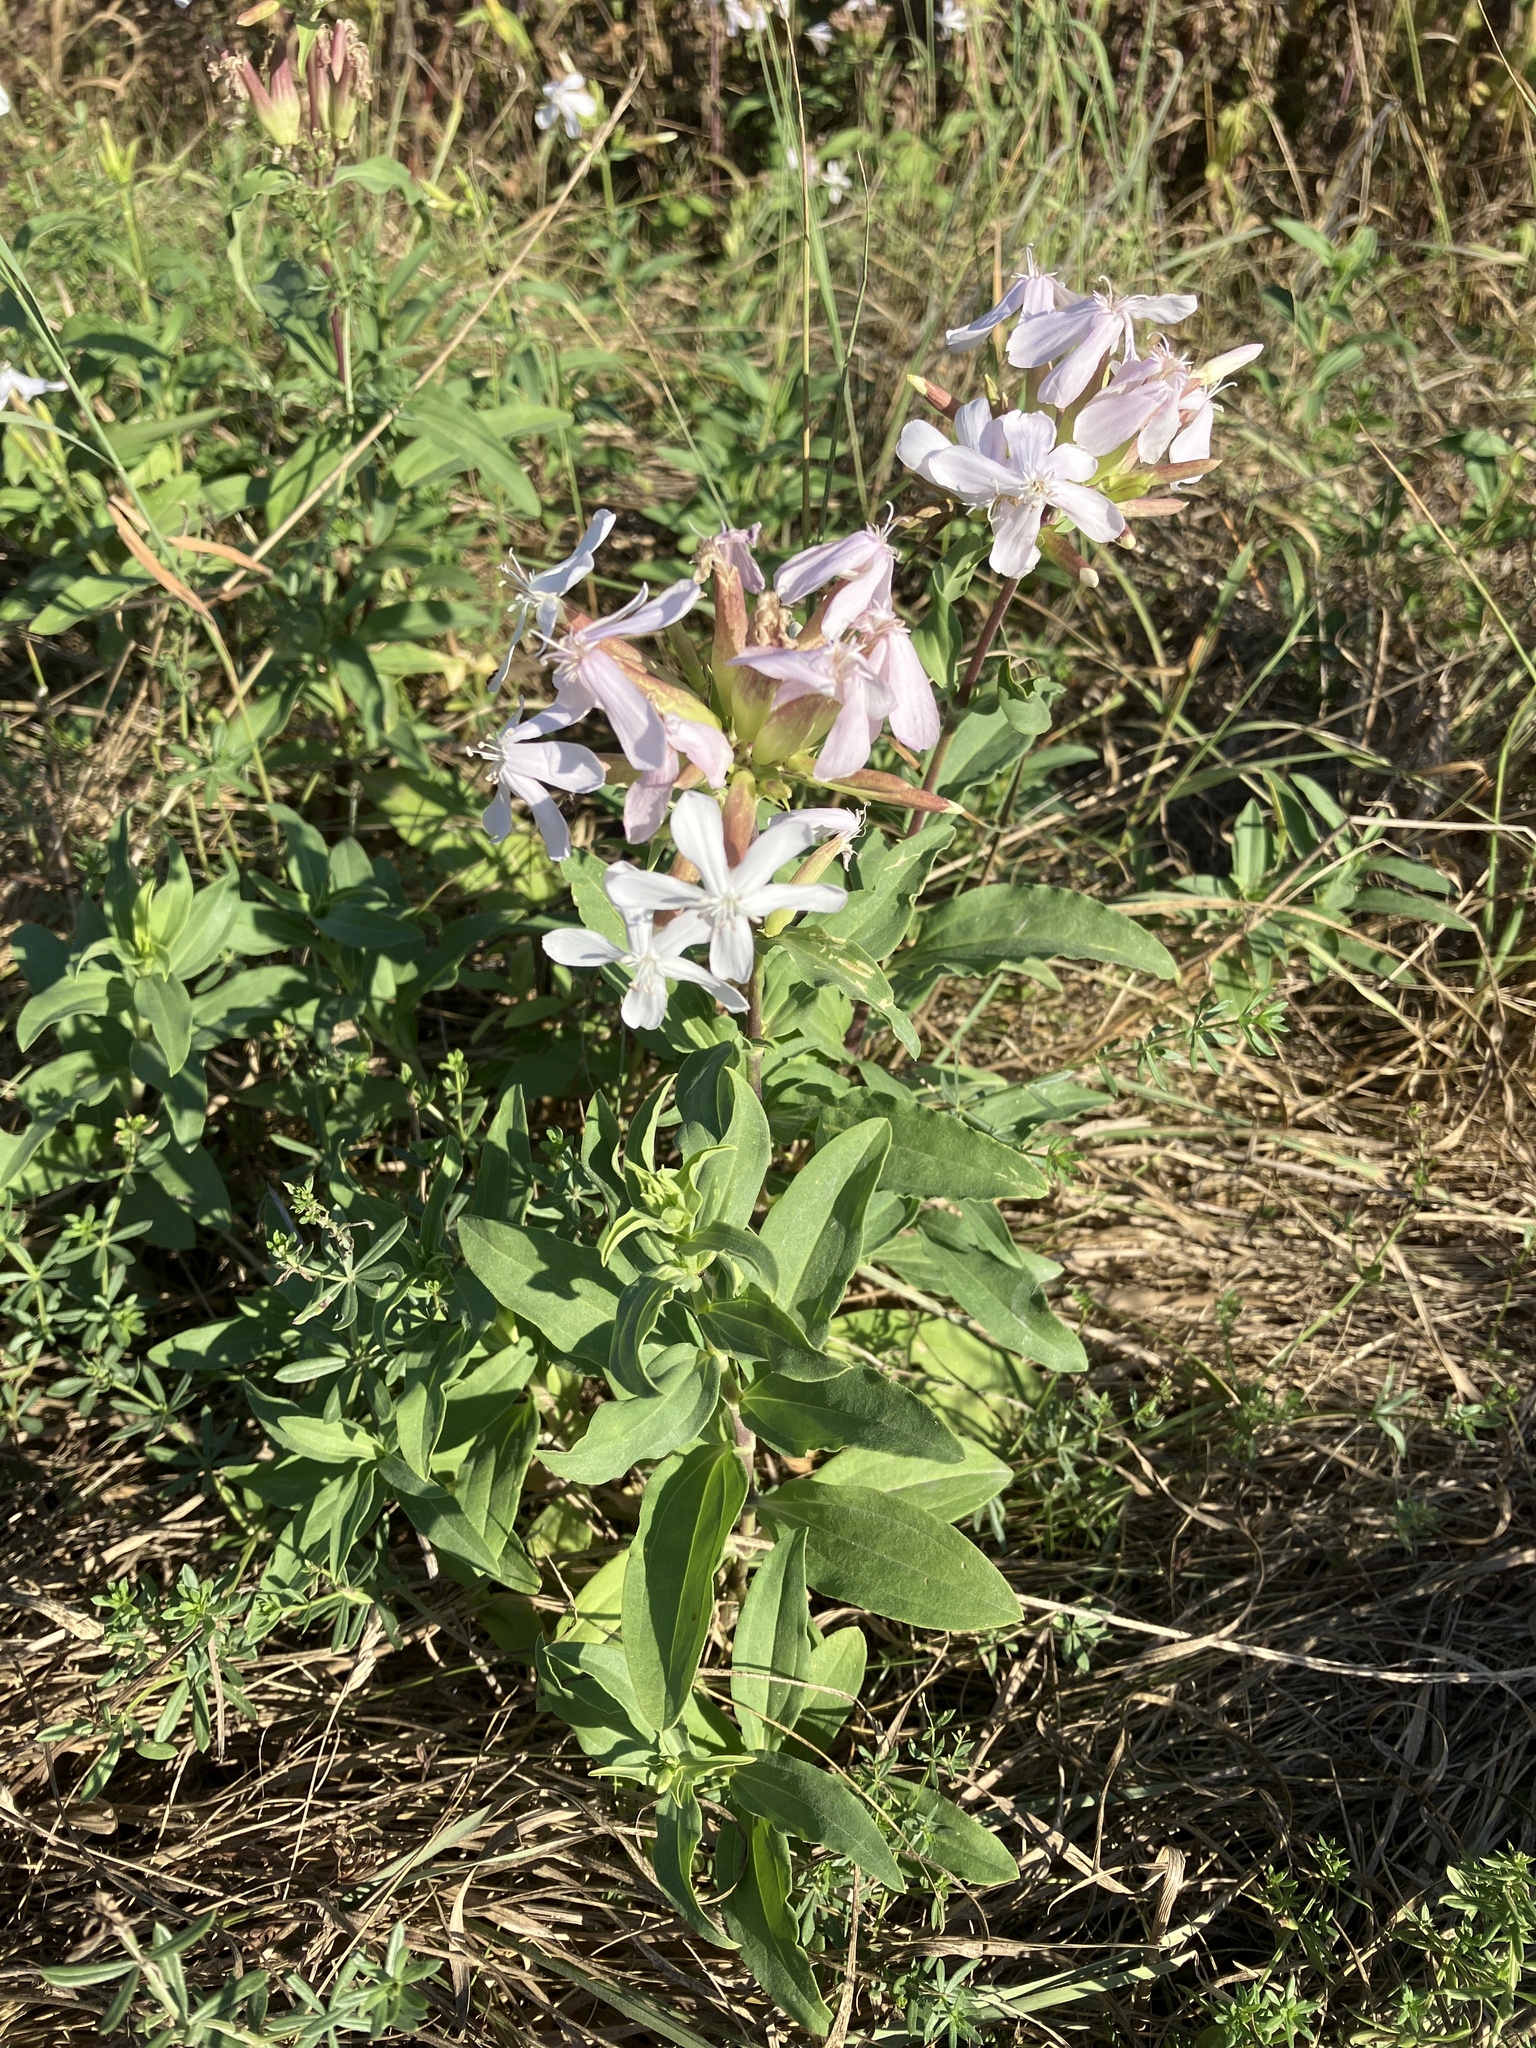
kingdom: Plantae
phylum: Tracheophyta
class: Magnoliopsida
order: Caryophyllales
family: Caryophyllaceae
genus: Saponaria
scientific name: Saponaria officinalis
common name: Soapwort
